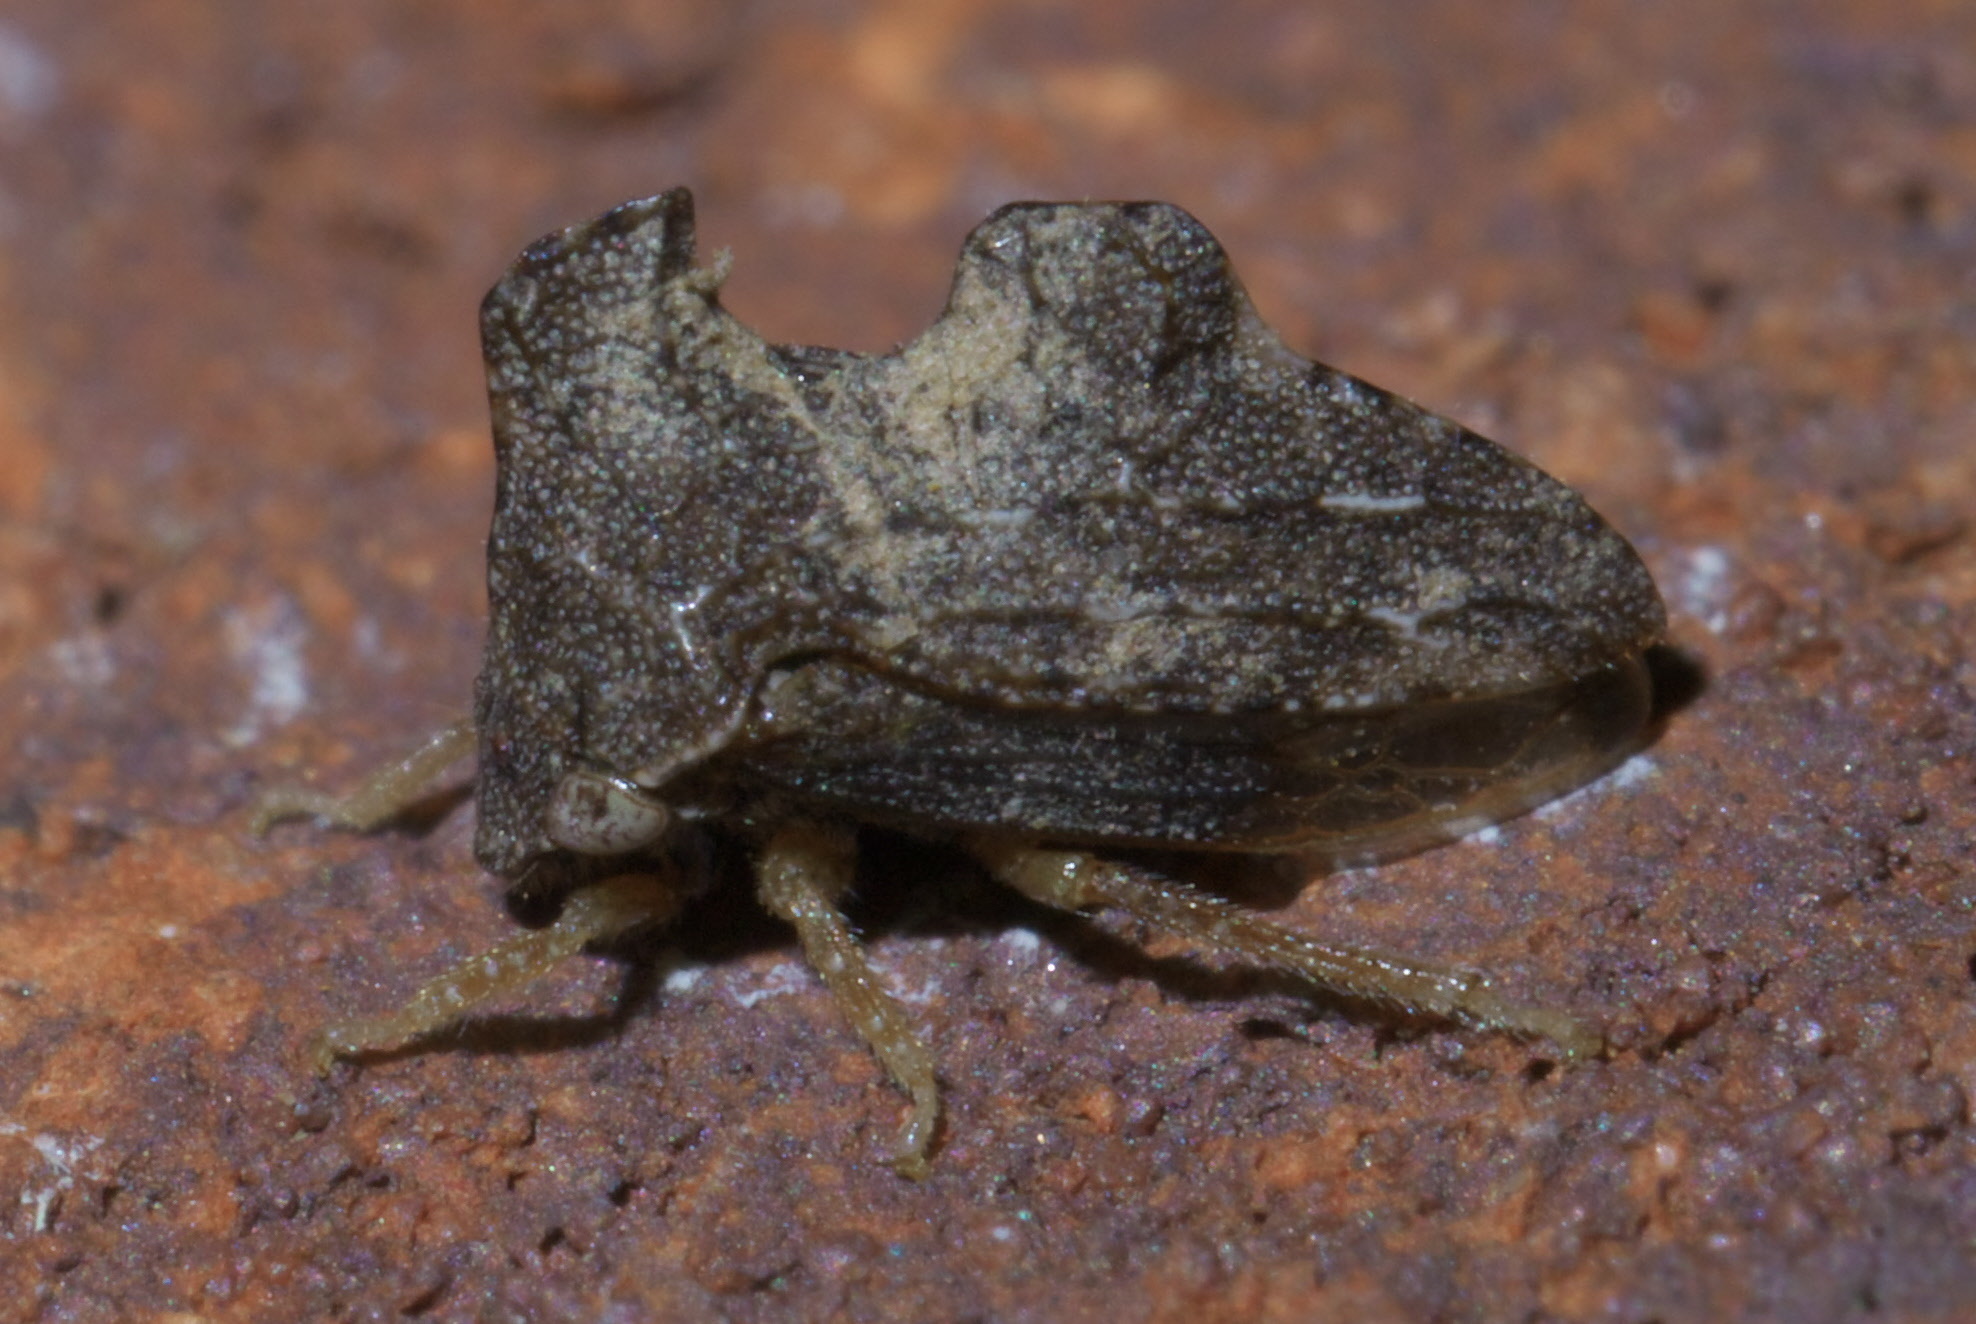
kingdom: Animalia
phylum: Arthropoda
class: Insecta
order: Hemiptera
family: Membracidae
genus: Entylia
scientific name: Entylia carinata
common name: Keeled treehopper
